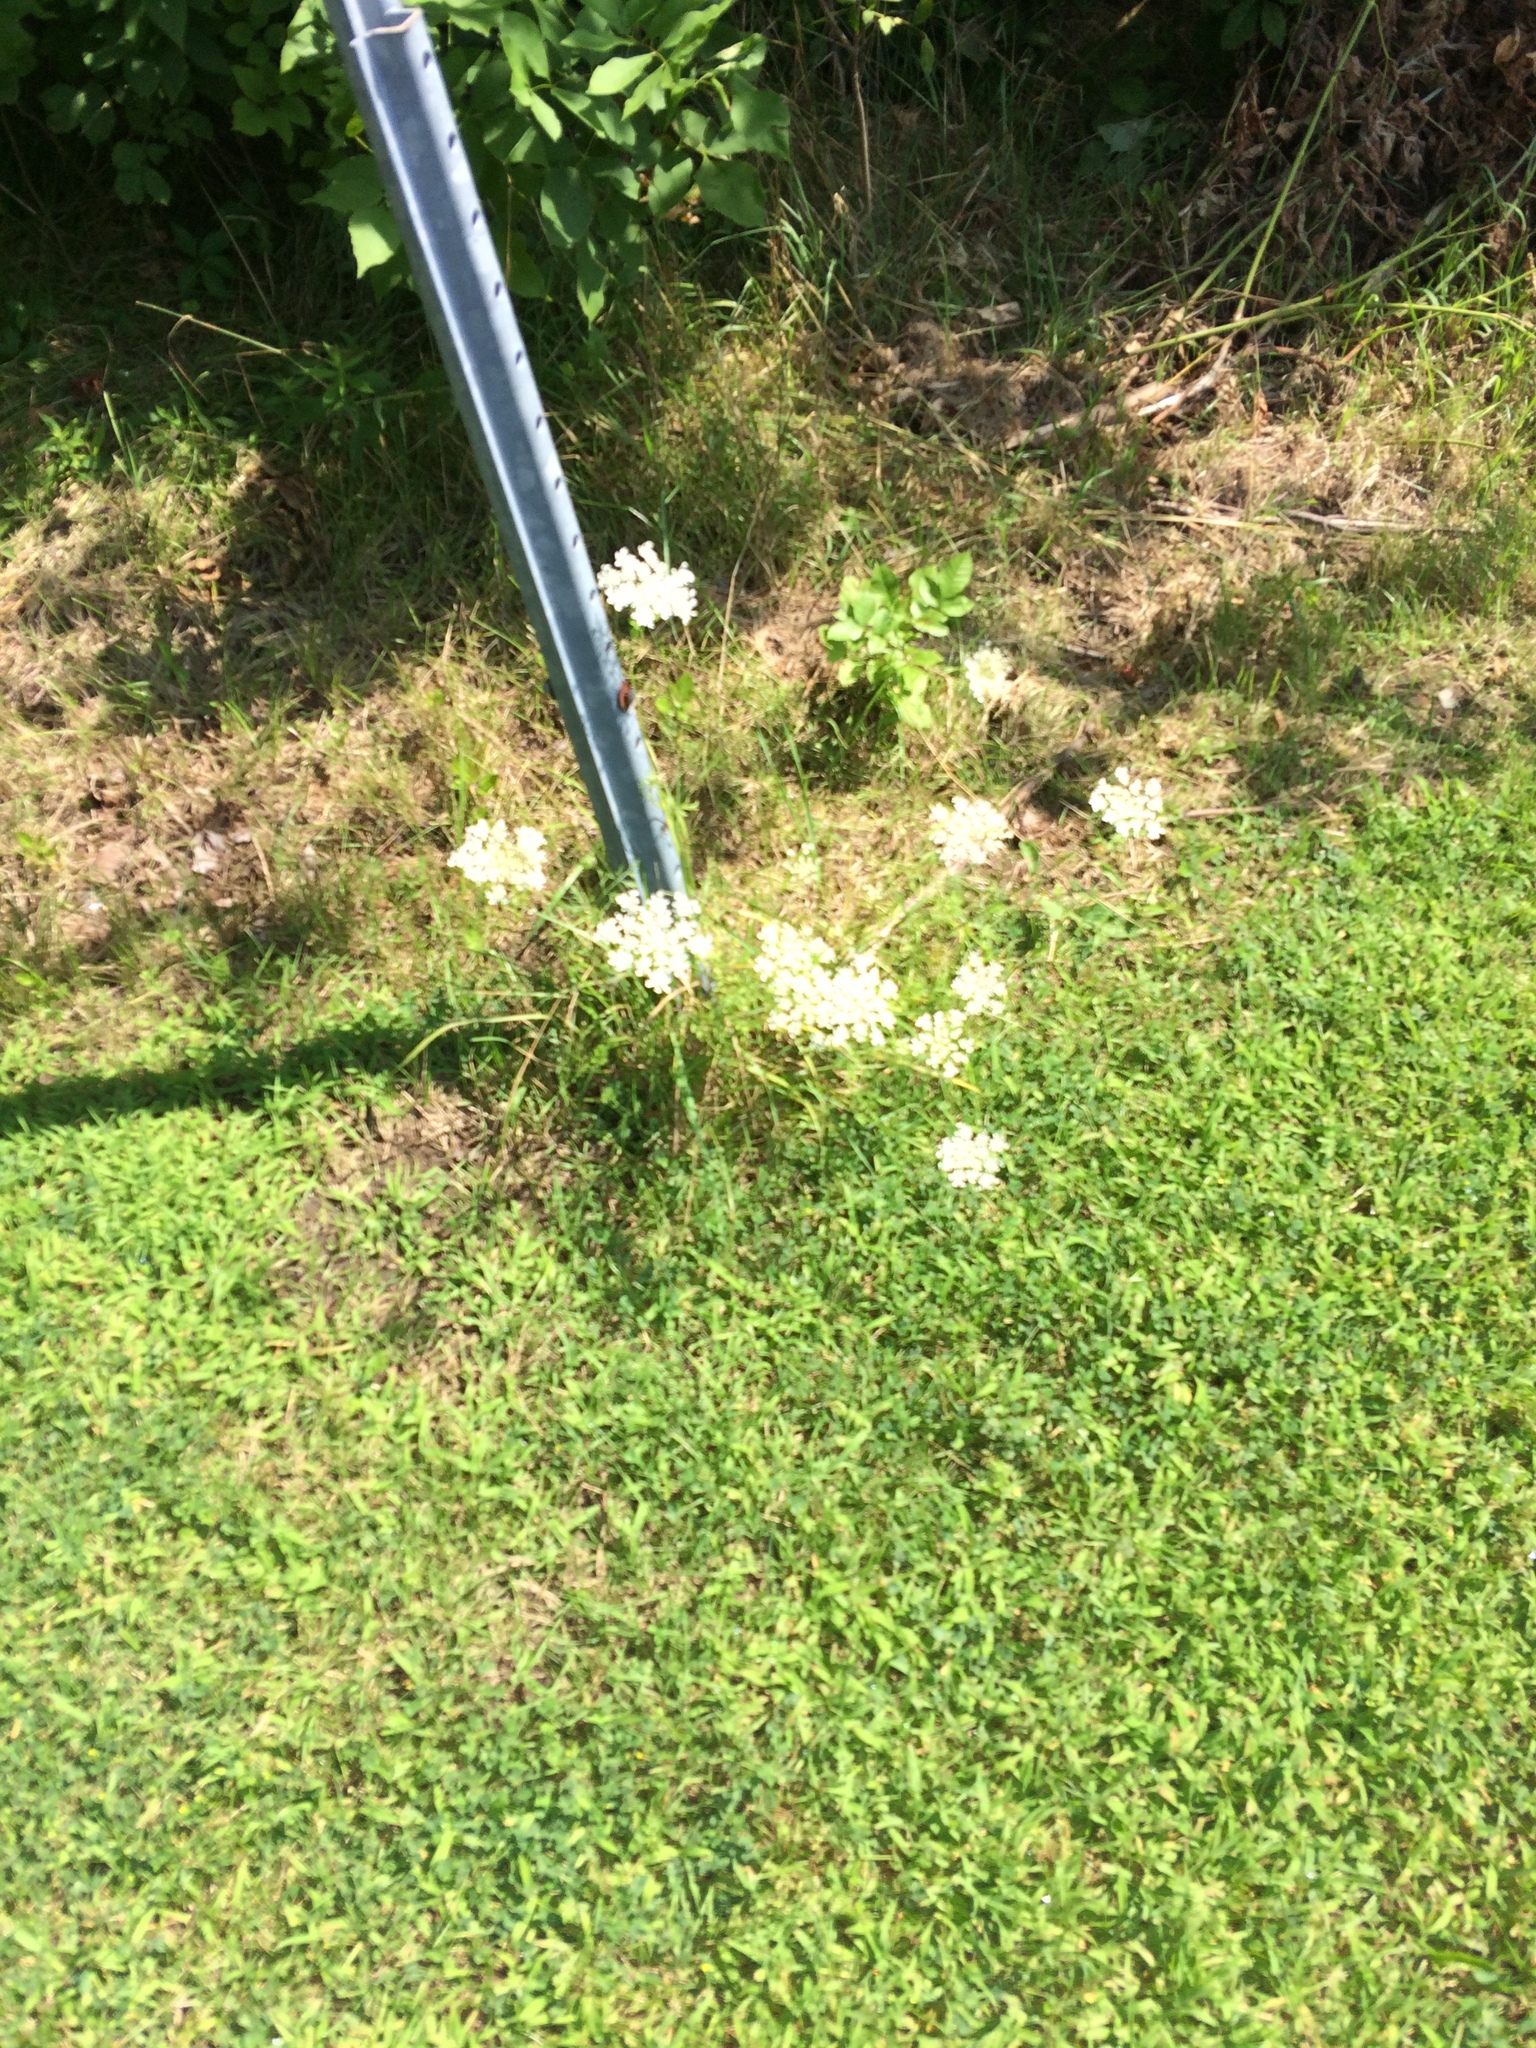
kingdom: Plantae
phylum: Tracheophyta
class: Magnoliopsida
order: Apiales
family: Apiaceae
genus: Daucus
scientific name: Daucus carota
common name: Wild carrot
